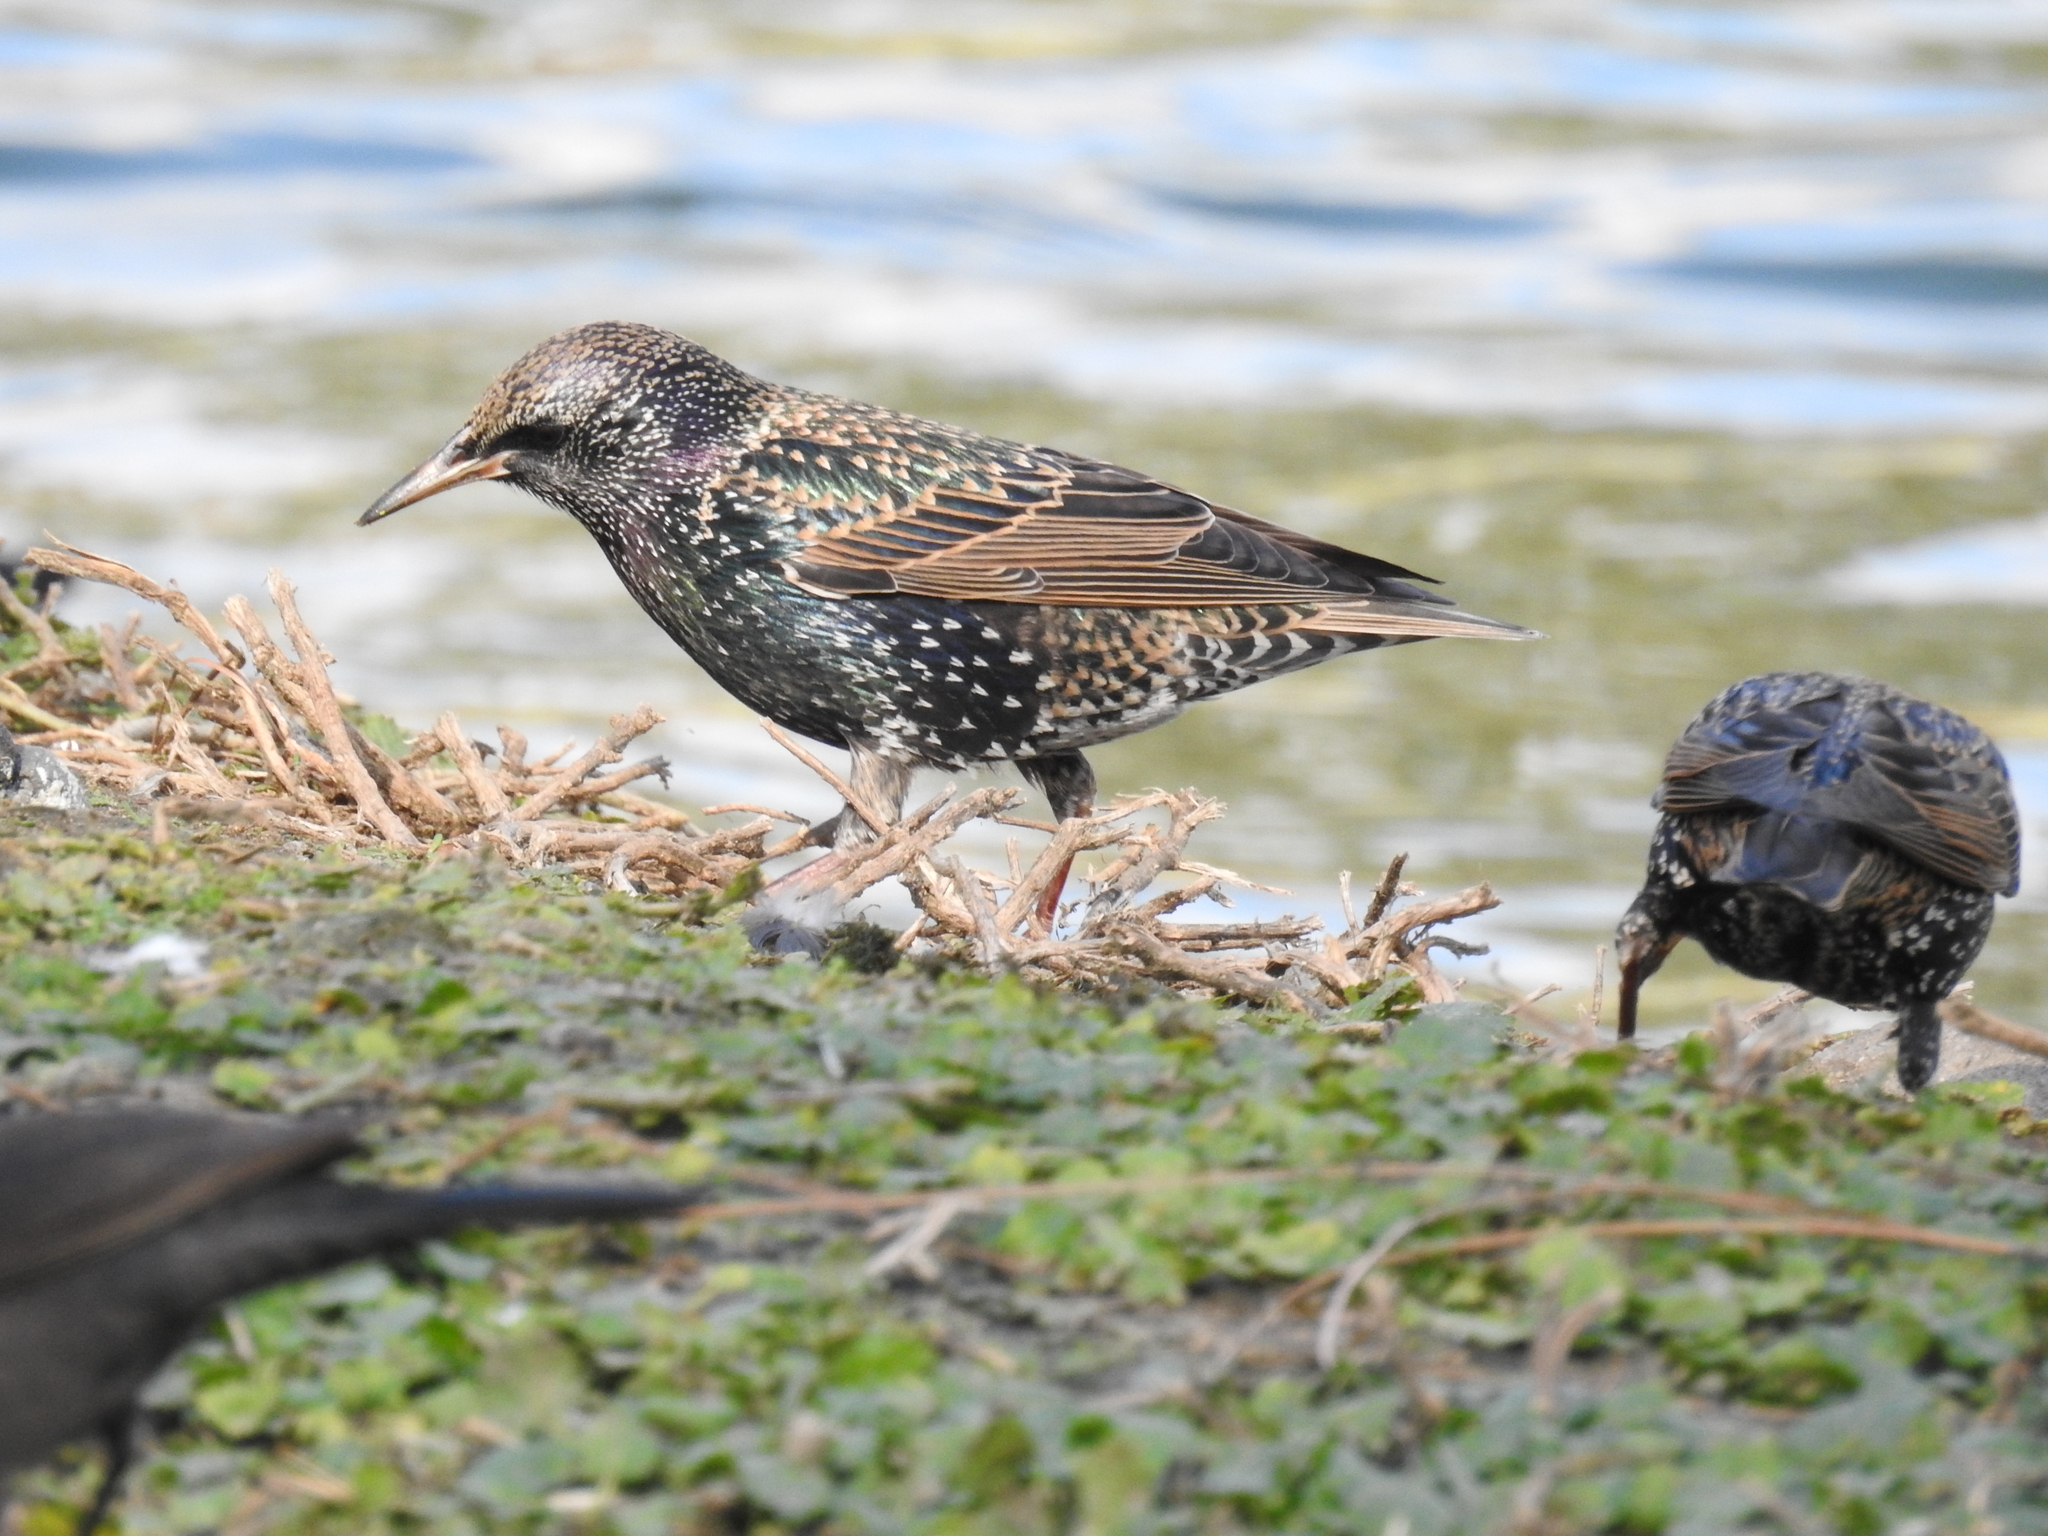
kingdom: Animalia
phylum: Chordata
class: Aves
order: Passeriformes
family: Sturnidae
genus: Sturnus
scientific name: Sturnus vulgaris
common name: Common starling
